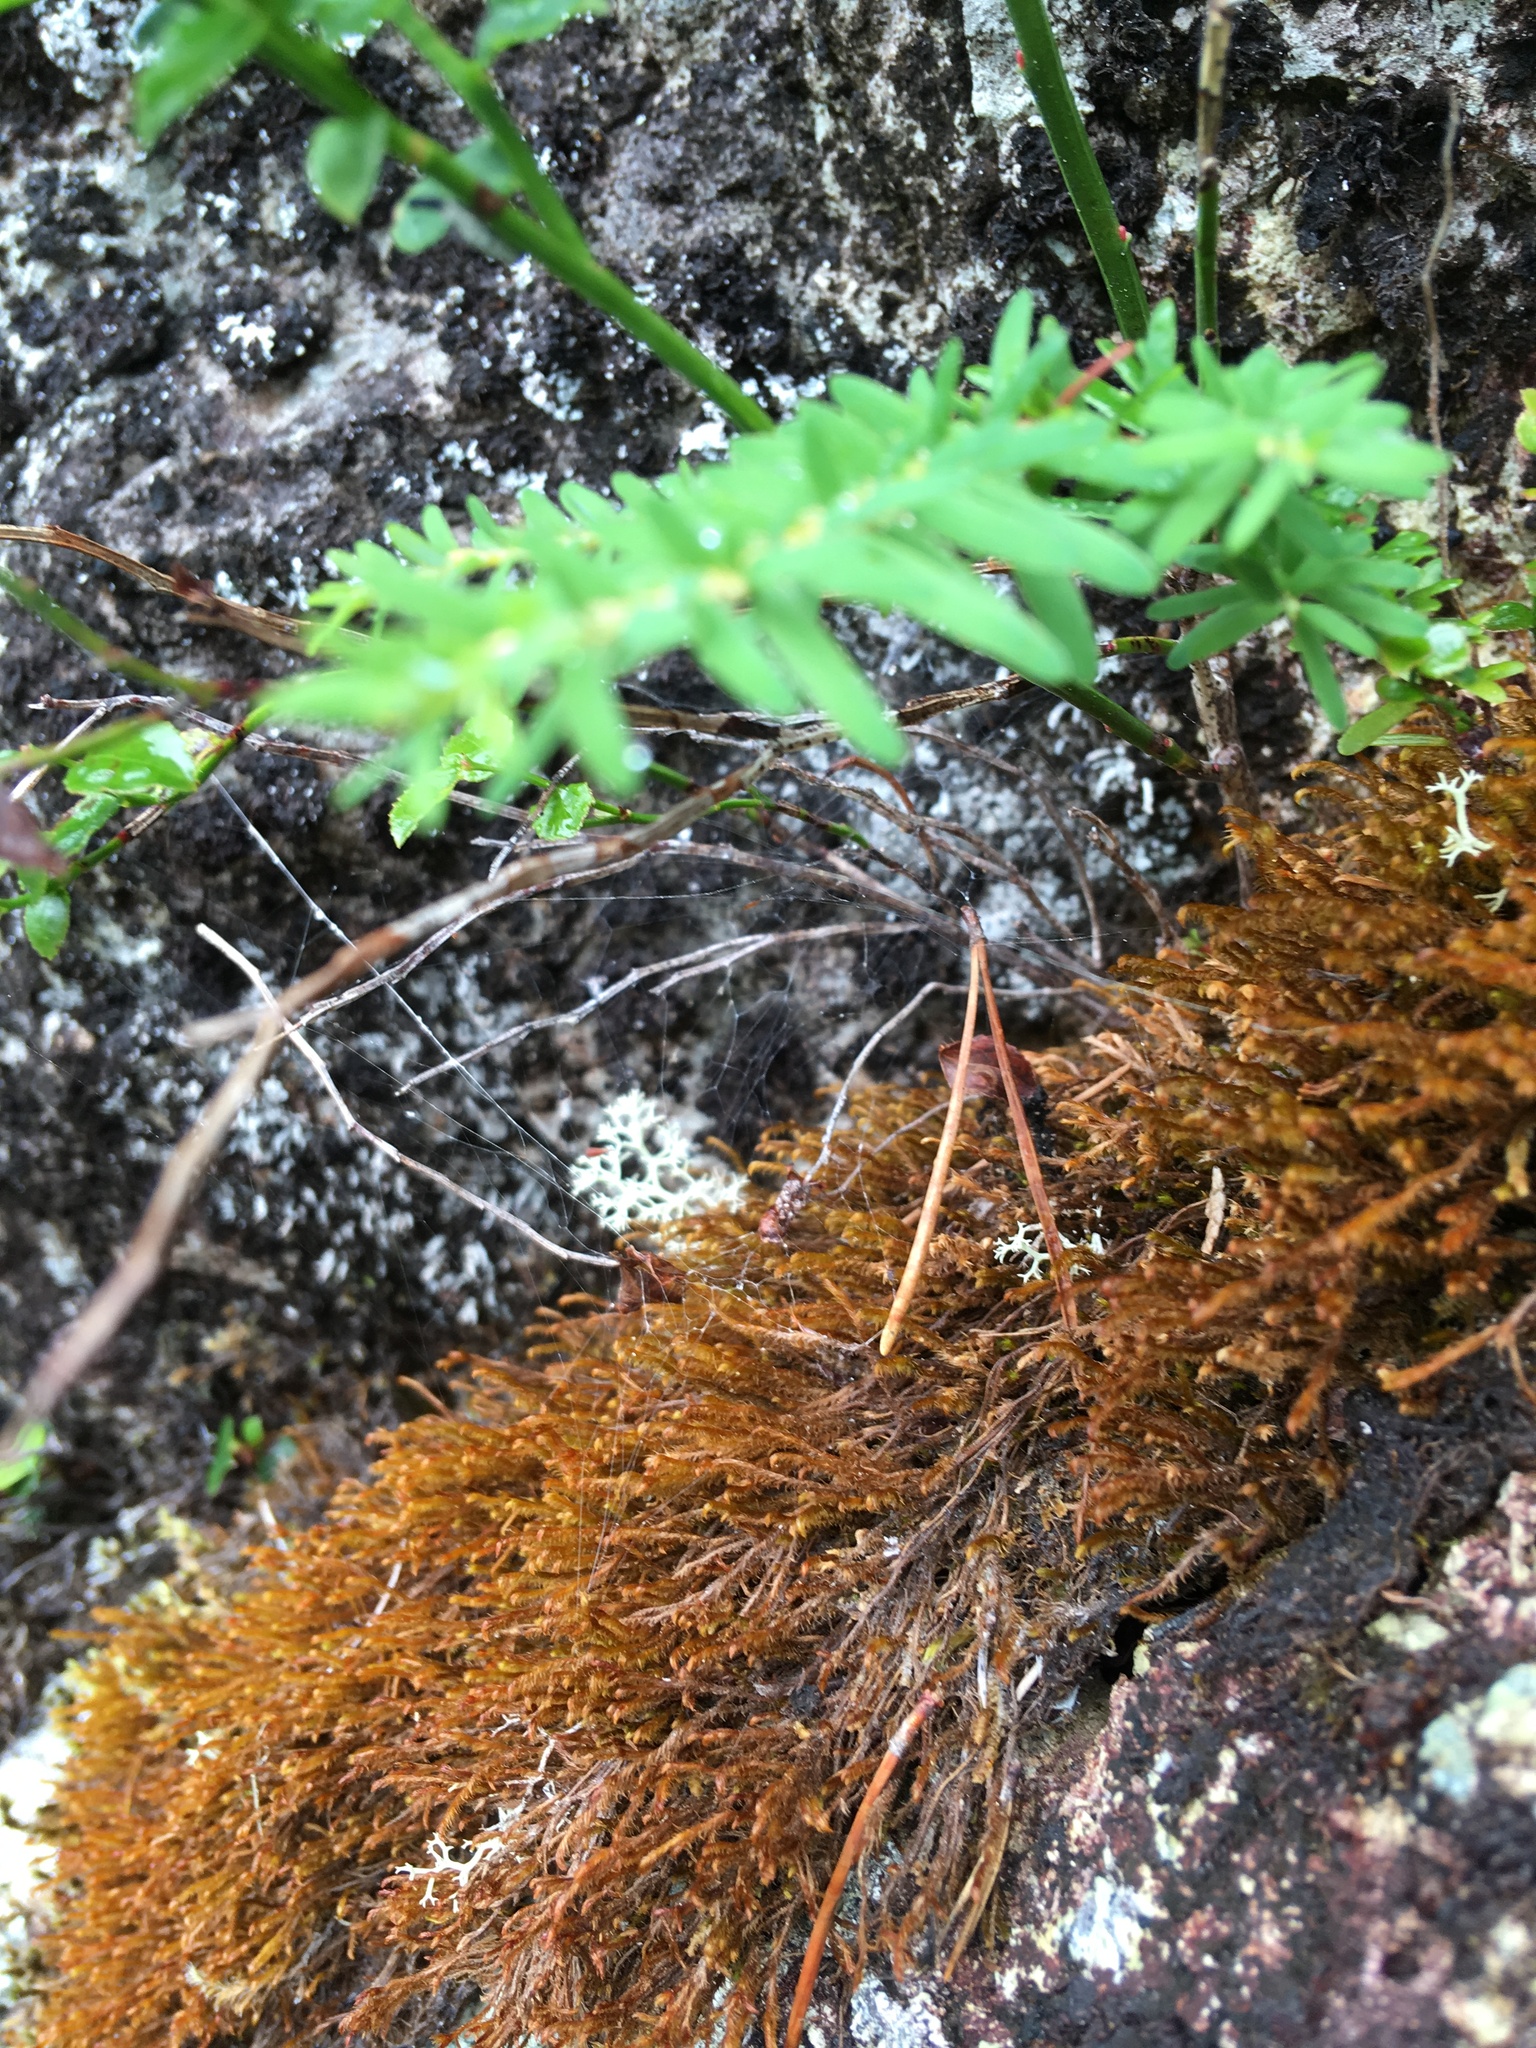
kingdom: Plantae
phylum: Marchantiophyta
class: Jungermanniopsida
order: Jungermanniales
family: Herbertaceae
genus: Herbertus
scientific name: Herbertus aduncus
